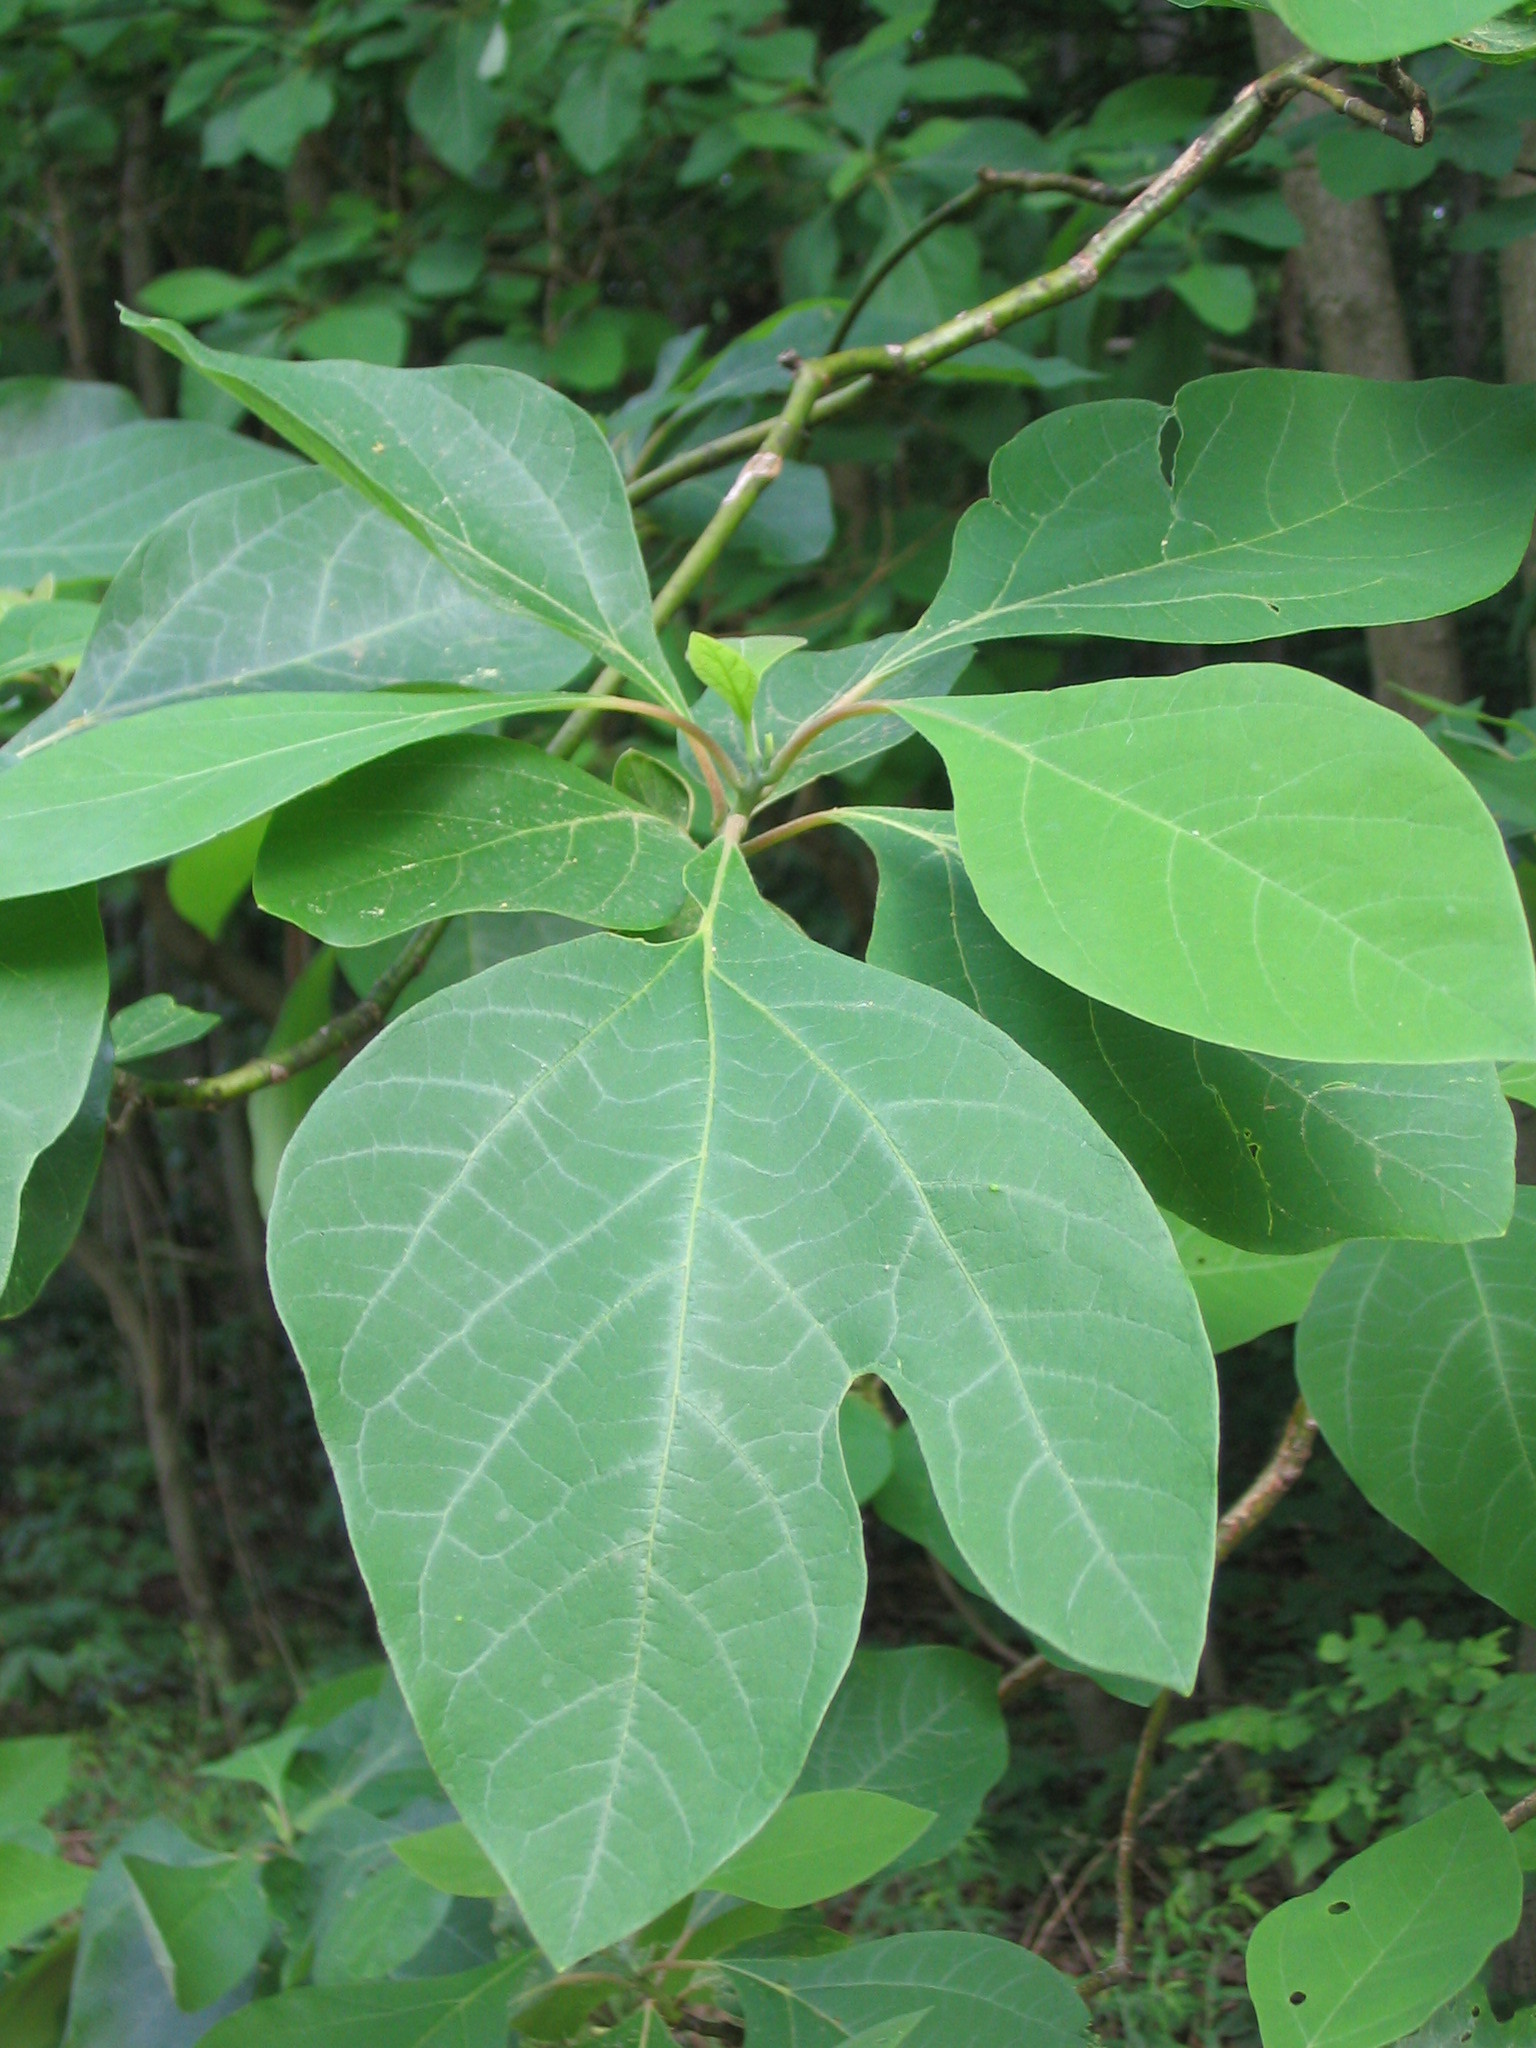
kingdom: Plantae
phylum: Tracheophyta
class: Magnoliopsida
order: Laurales
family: Lauraceae
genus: Sassafras
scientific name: Sassafras albidum
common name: Sassafras
